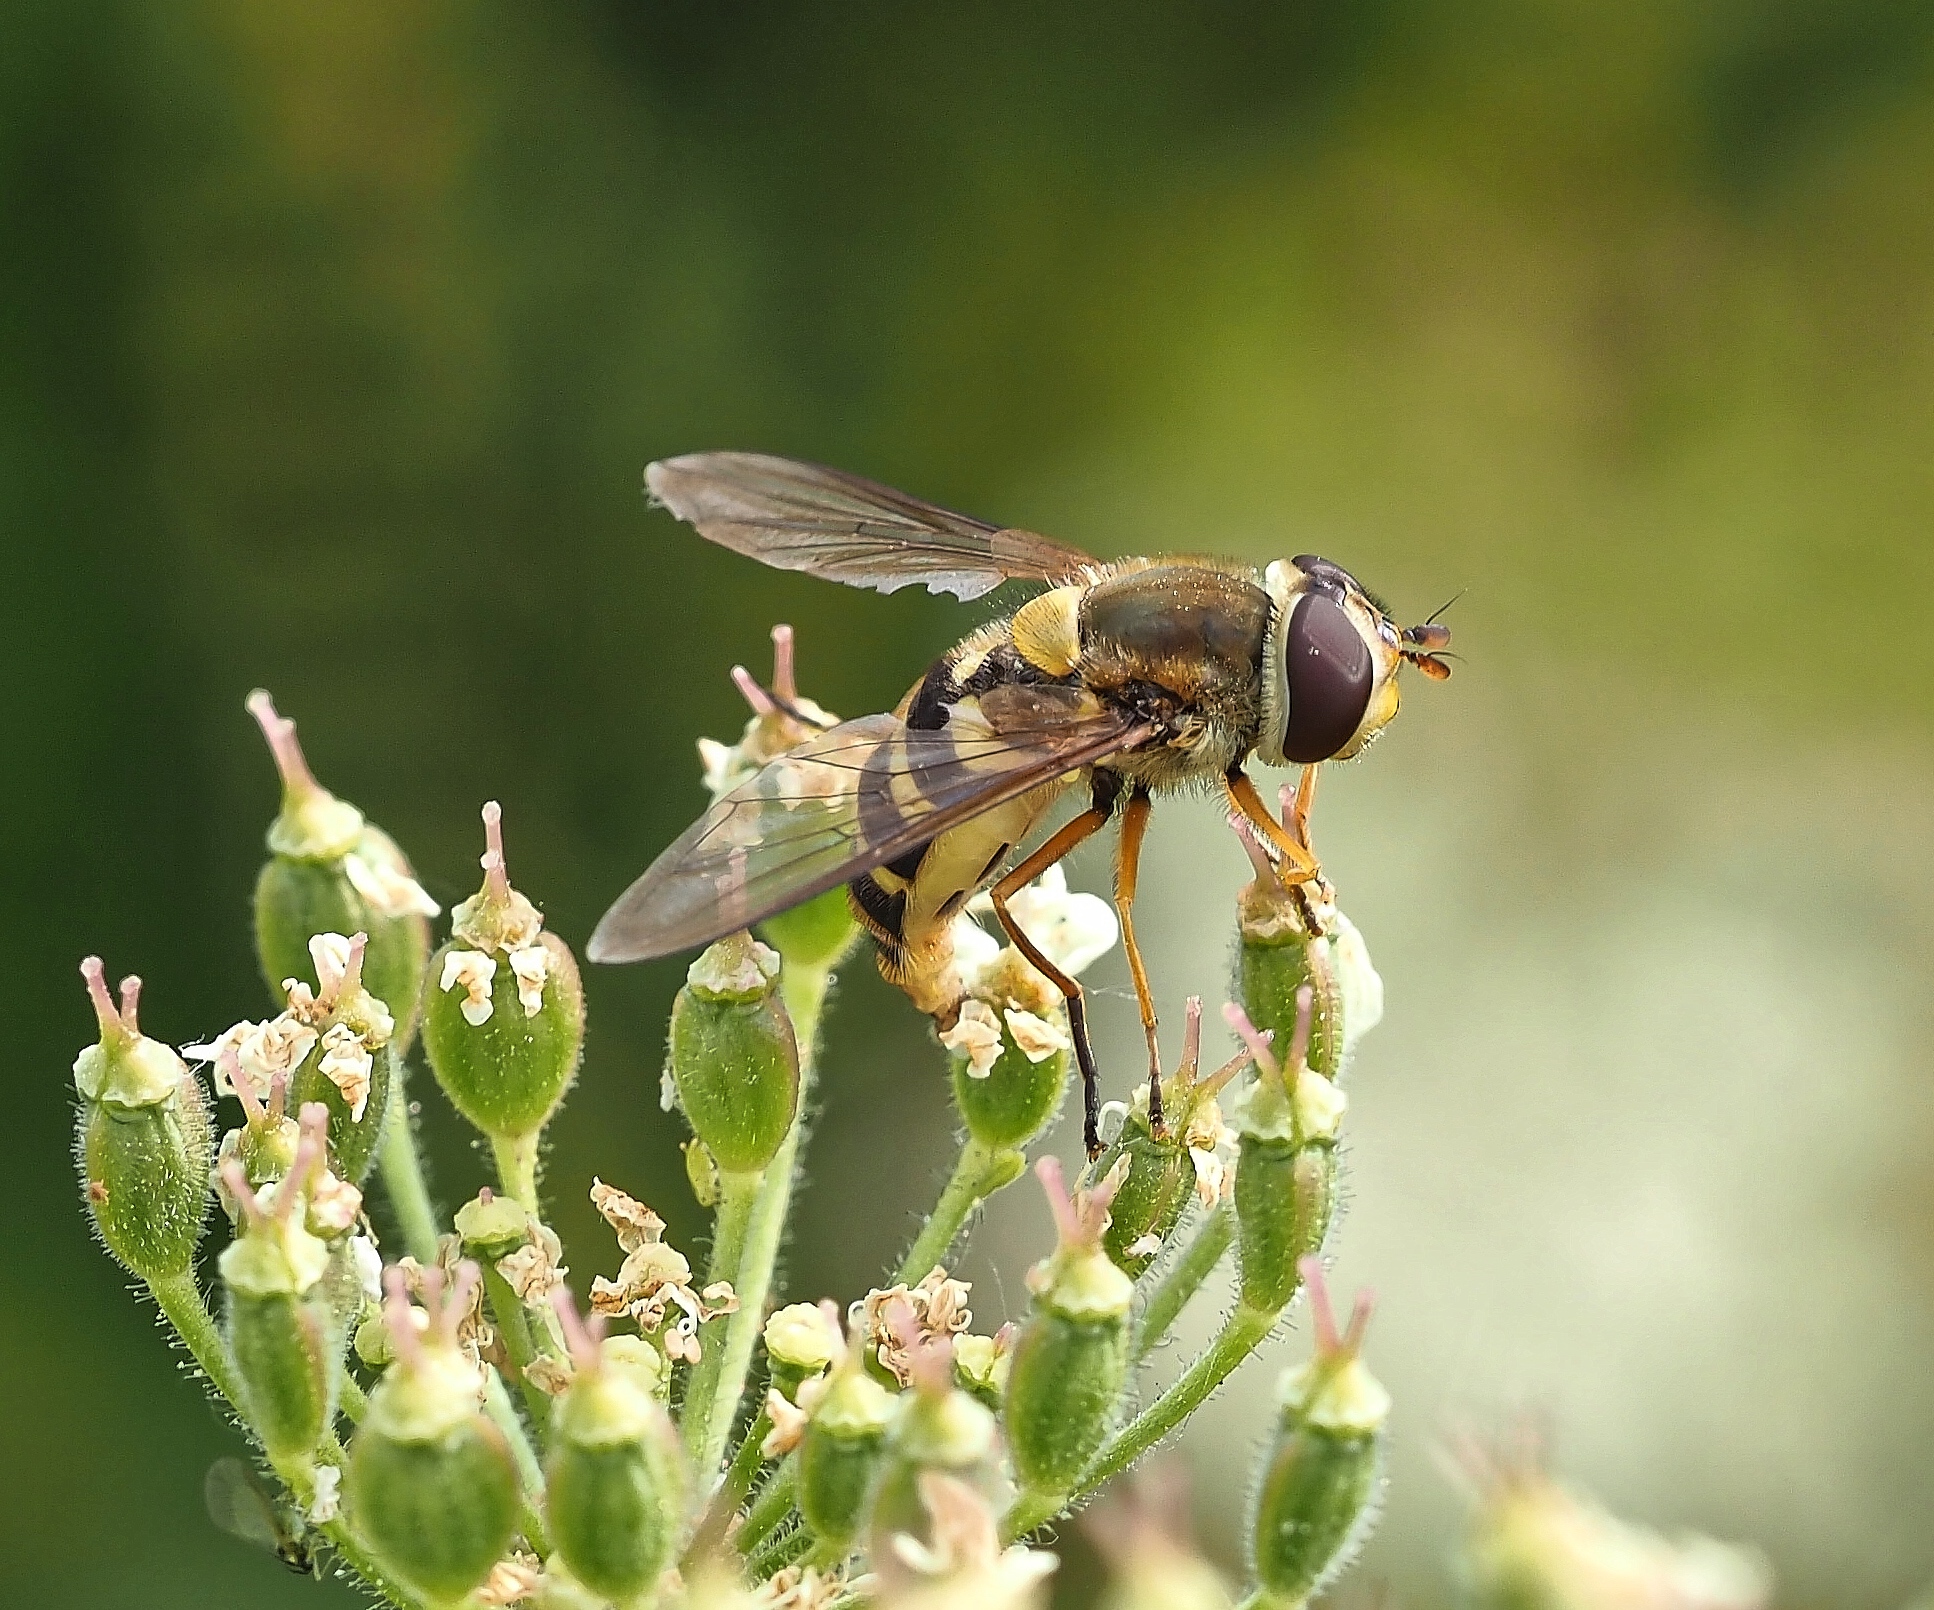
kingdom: Animalia
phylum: Arthropoda
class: Insecta
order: Diptera
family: Syrphidae
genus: Syrphus
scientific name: Syrphus ribesii
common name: Common flower fly
